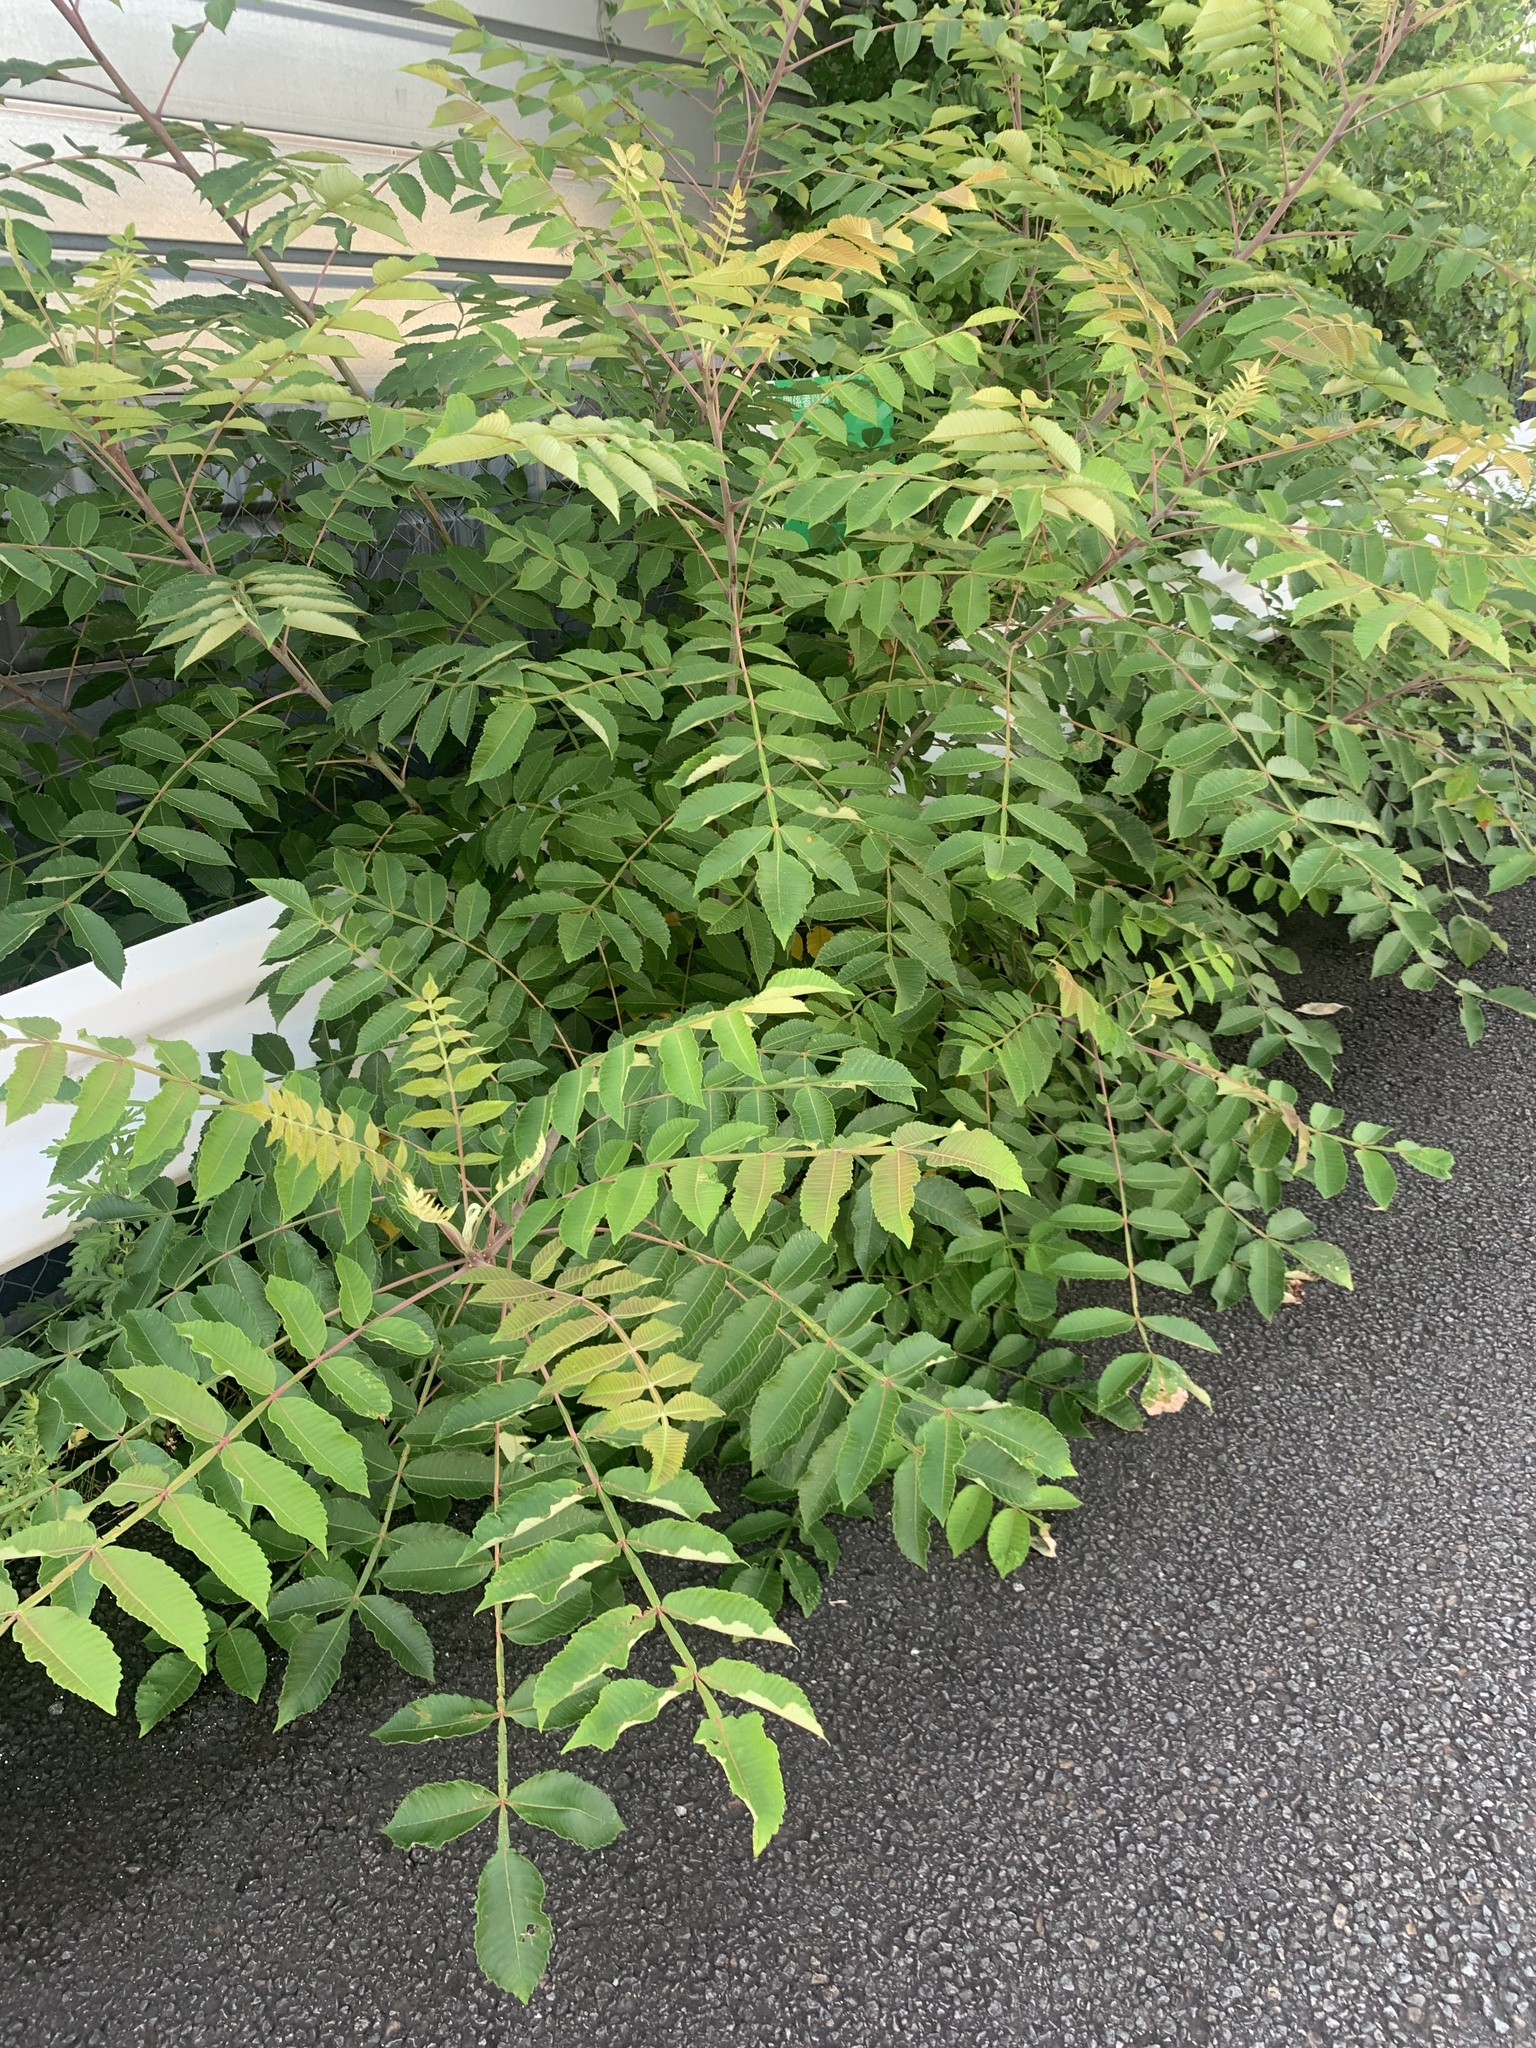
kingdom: Plantae
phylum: Tracheophyta
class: Magnoliopsida
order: Sapindales
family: Anacardiaceae
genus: Rhus
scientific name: Rhus chinensis
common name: Chinese gall
